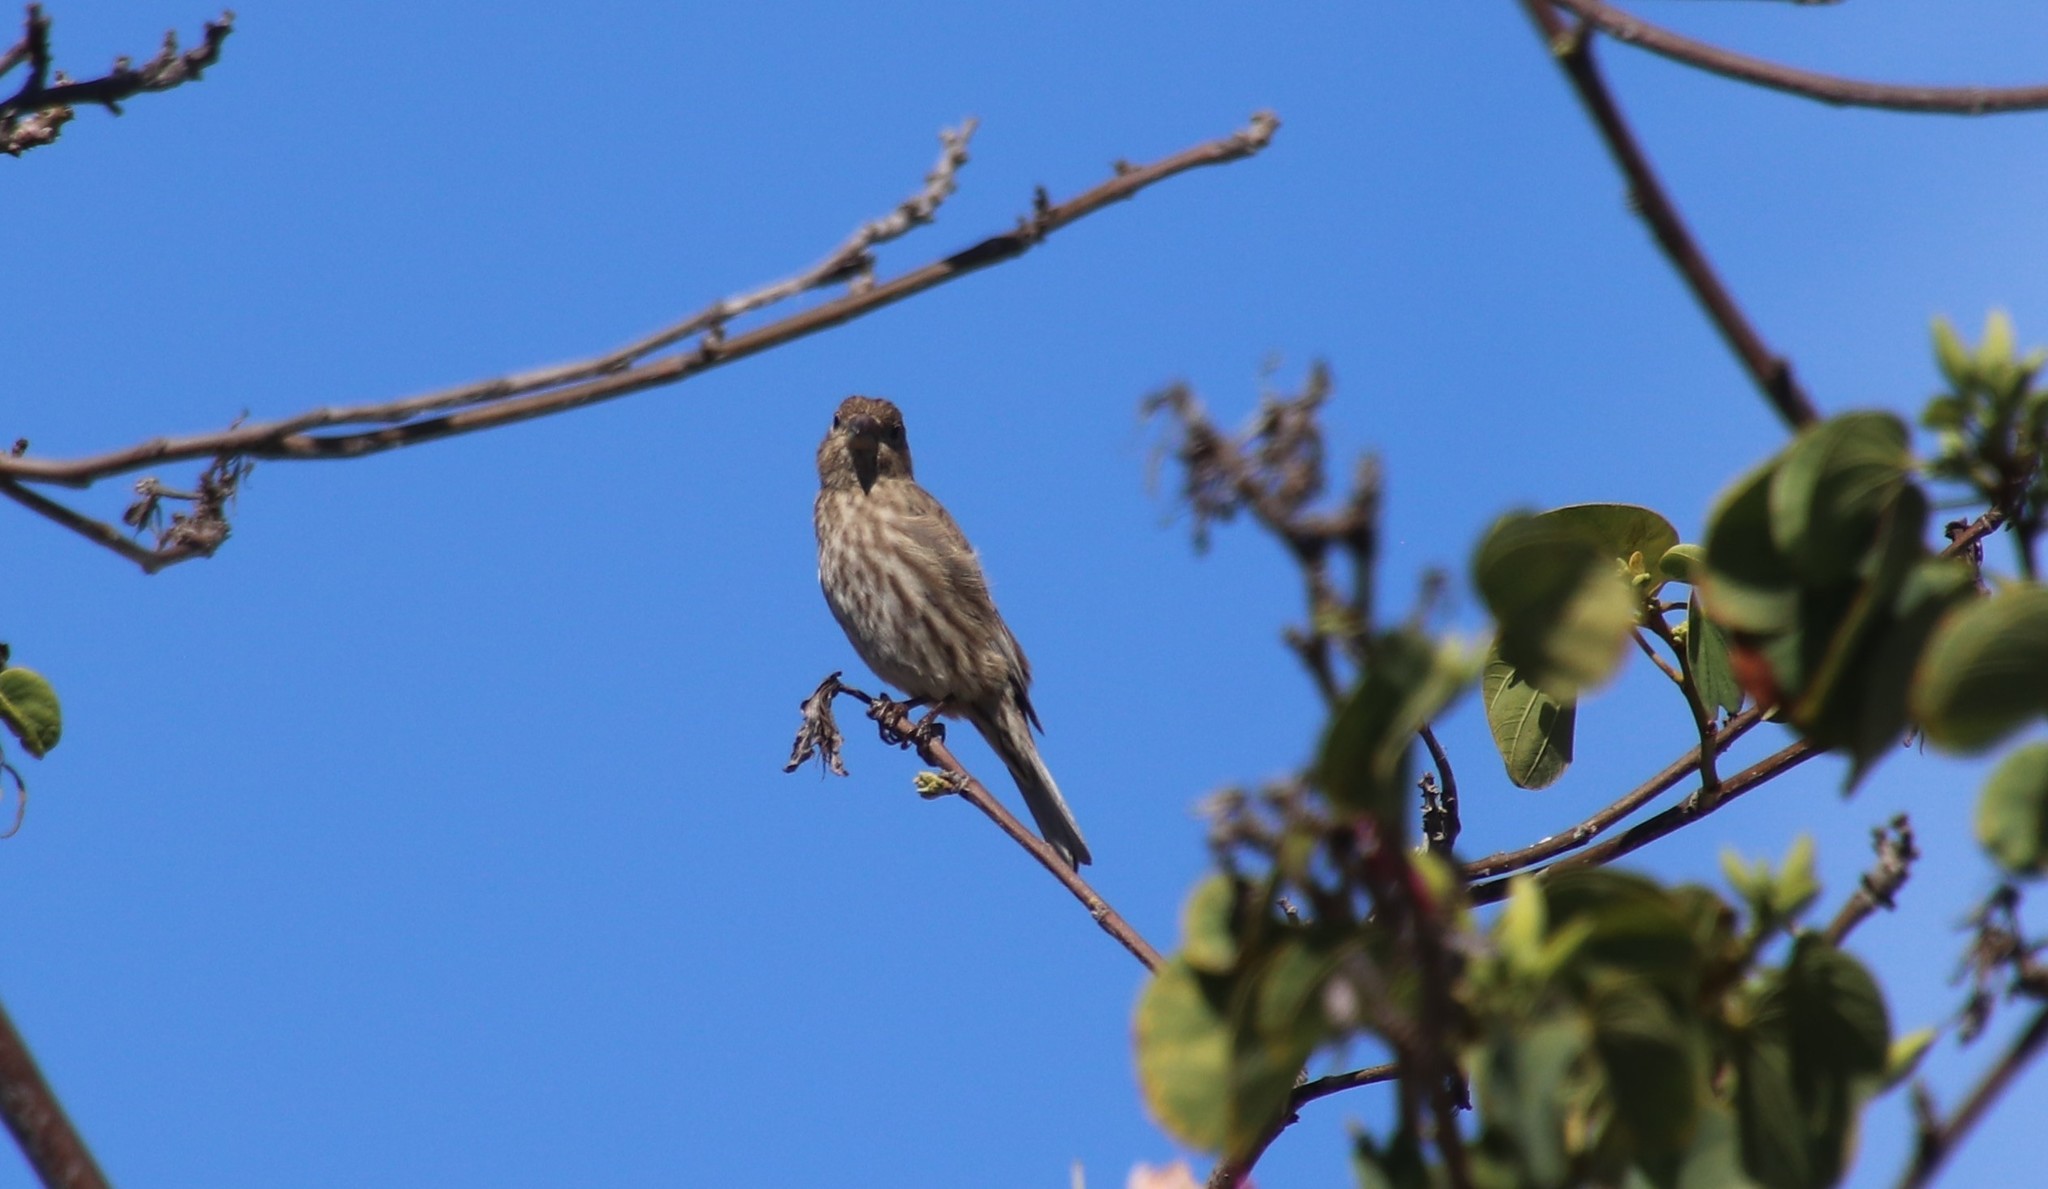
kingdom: Animalia
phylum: Chordata
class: Aves
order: Passeriformes
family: Fringillidae
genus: Haemorhous
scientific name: Haemorhous mexicanus
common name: House finch
